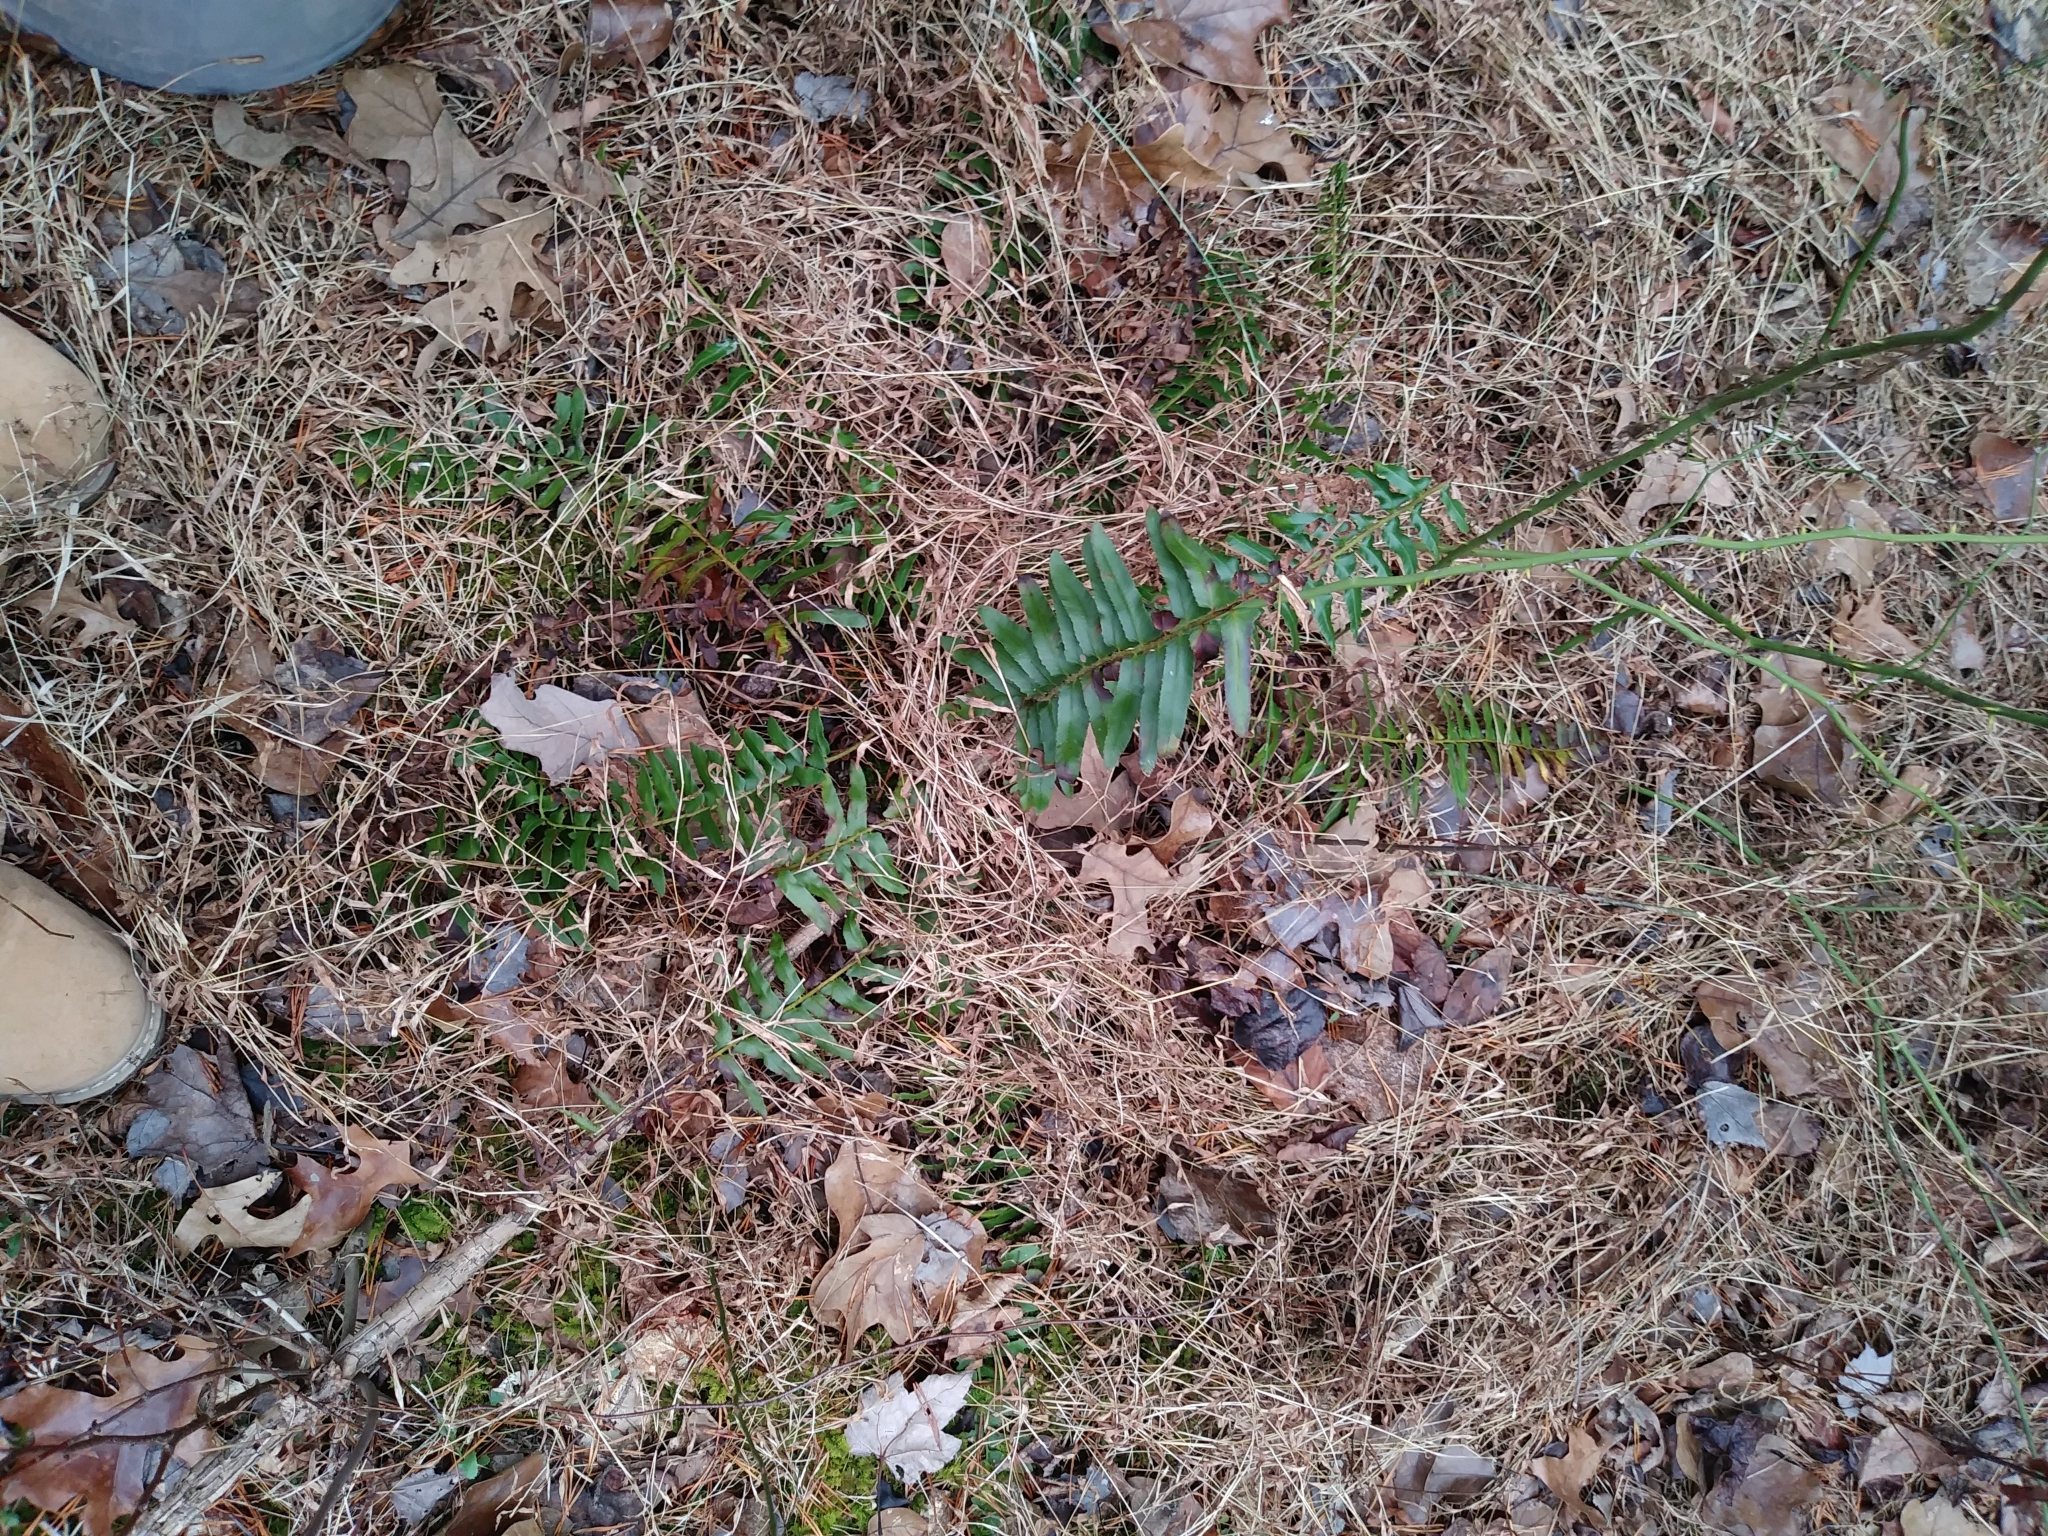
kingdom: Plantae
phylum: Tracheophyta
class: Polypodiopsida
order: Polypodiales
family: Dryopteridaceae
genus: Polystichum
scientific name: Polystichum acrostichoides
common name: Christmas fern
